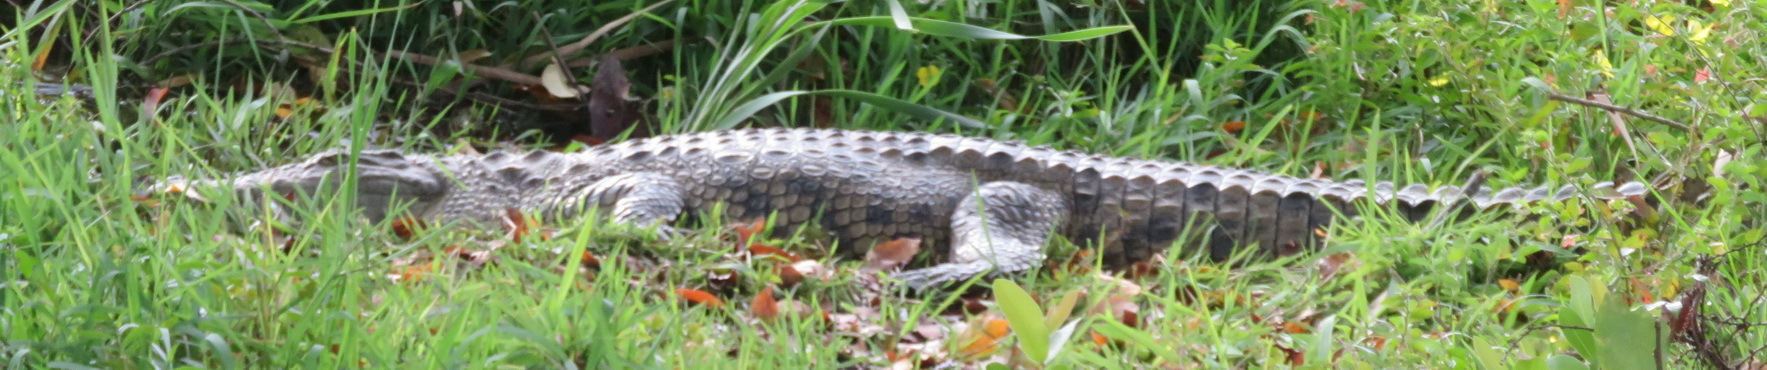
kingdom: Animalia
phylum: Chordata
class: Crocodylia
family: Crocodylidae
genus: Crocodylus
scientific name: Crocodylus niloticus
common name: Nile crocodile
